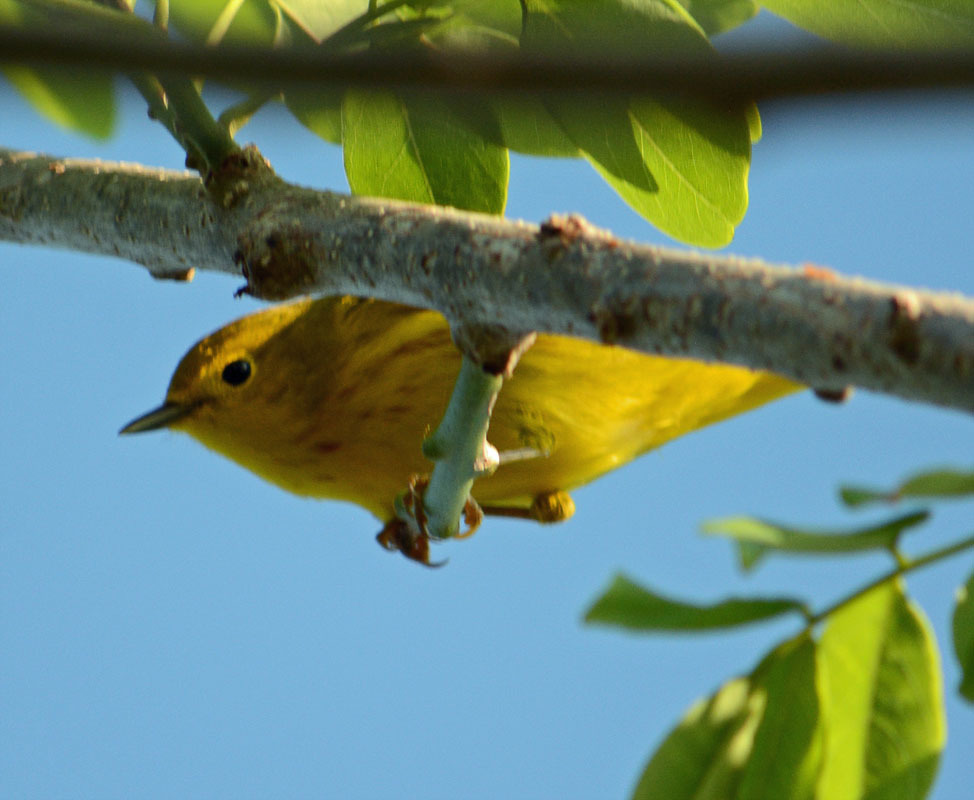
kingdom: Animalia
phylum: Chordata
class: Aves
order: Passeriformes
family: Parulidae
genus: Setophaga
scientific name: Setophaga petechia
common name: Yellow warbler
